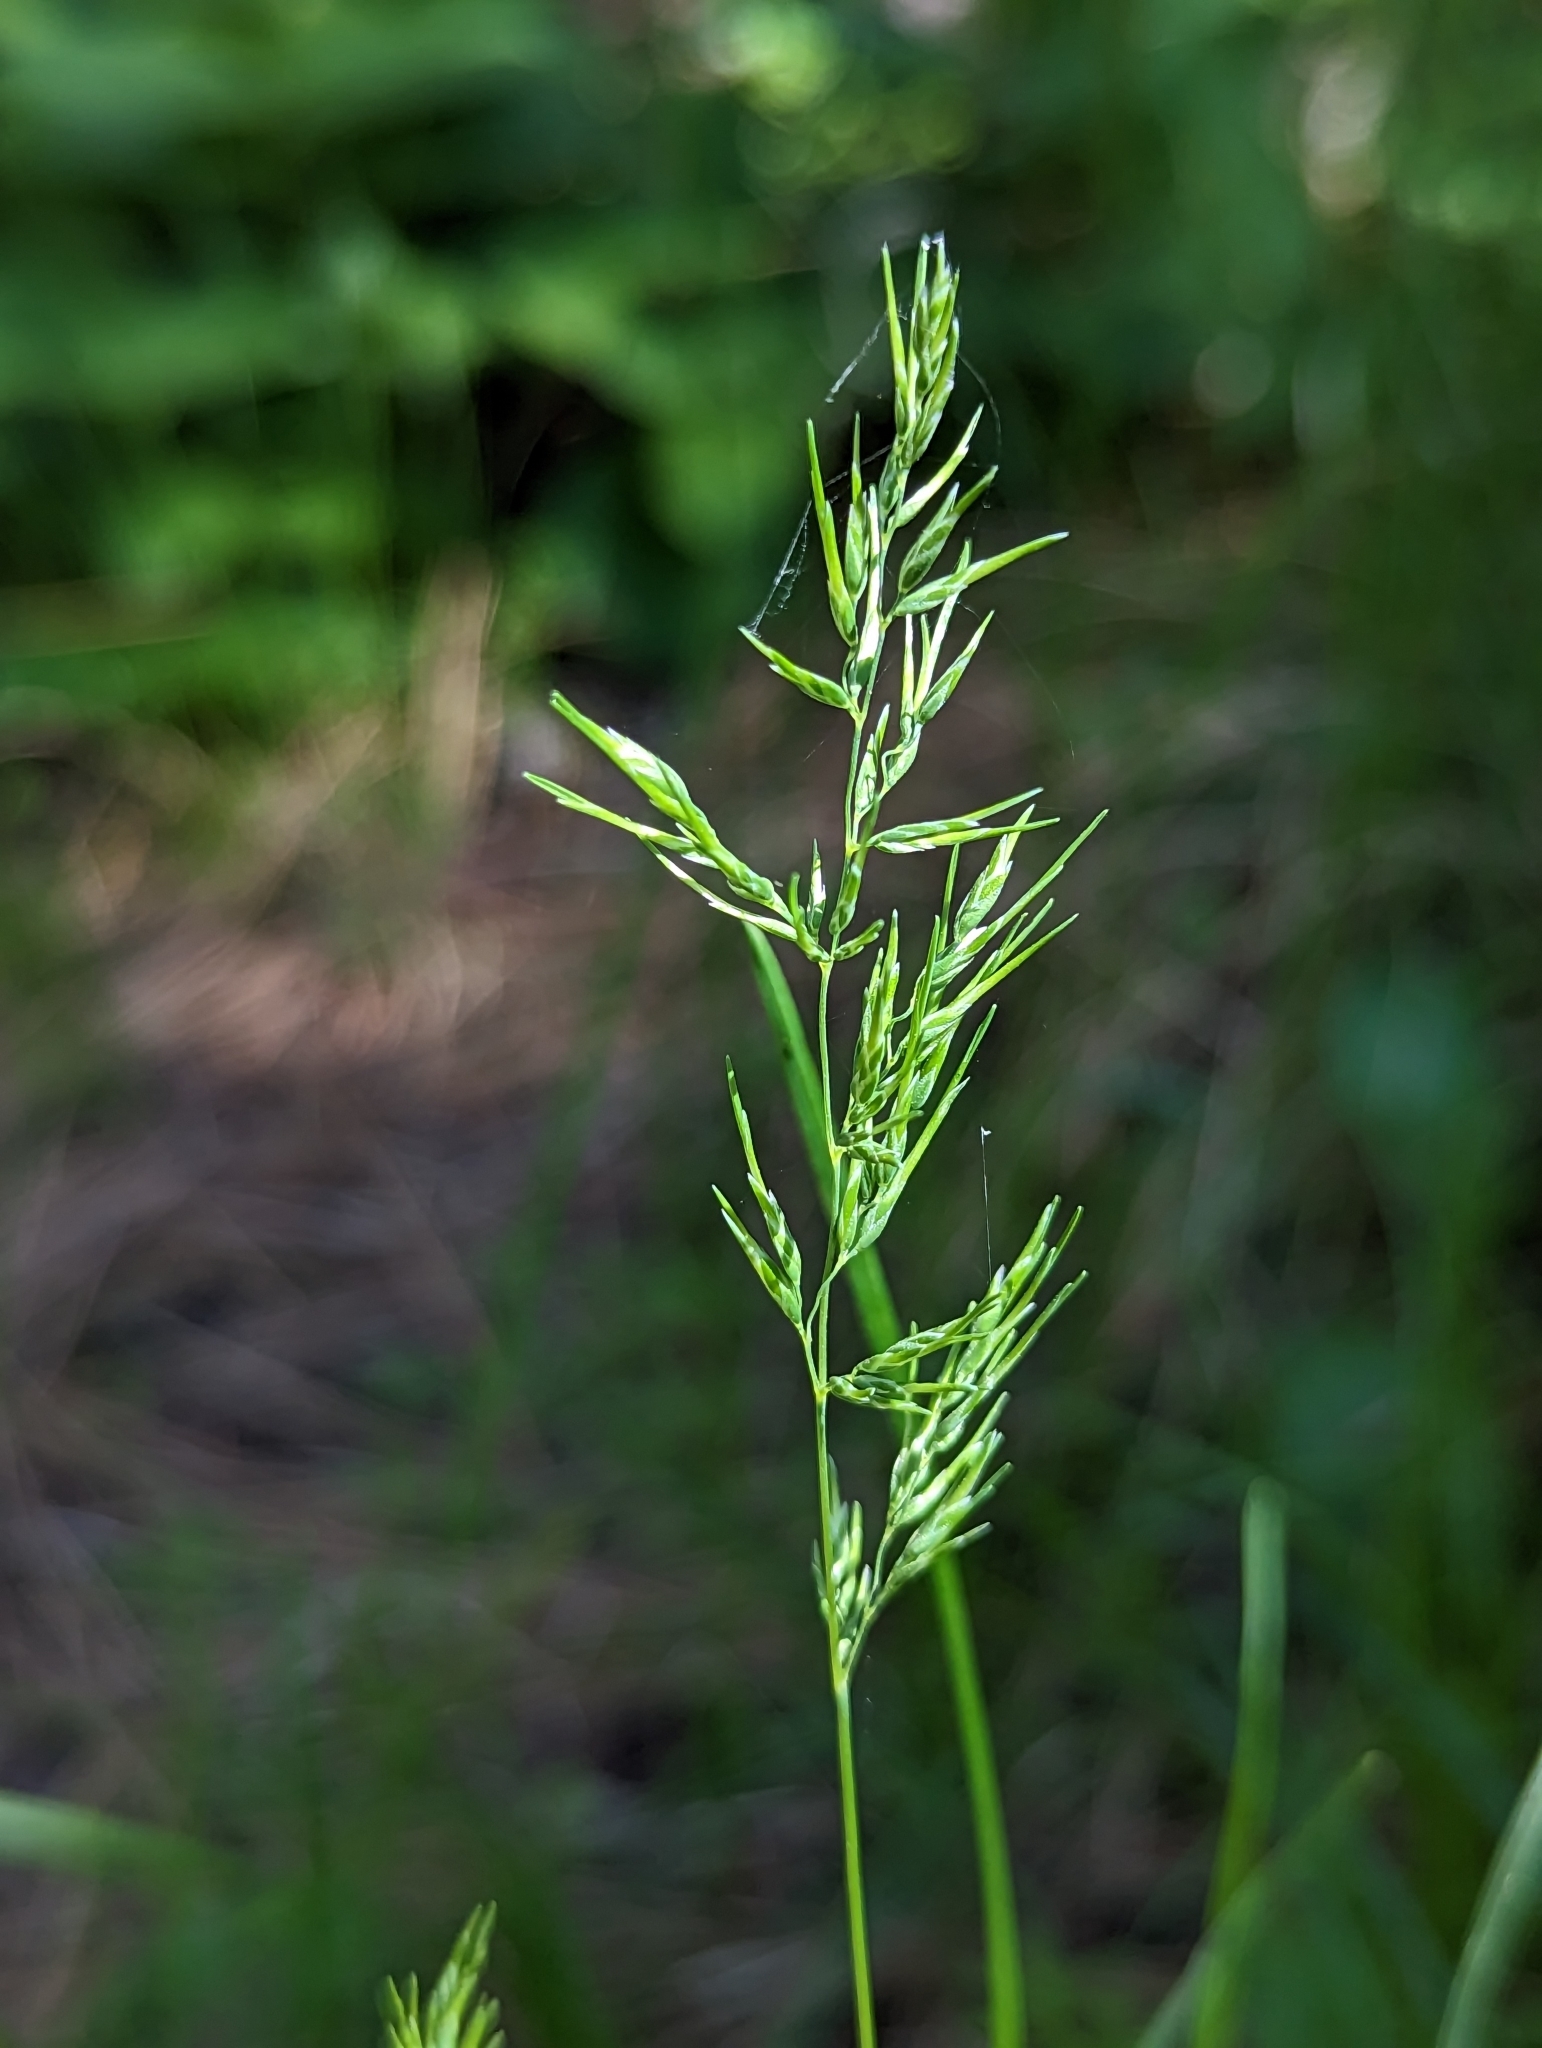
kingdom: Plantae
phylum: Tracheophyta
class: Liliopsida
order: Poales
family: Poaceae
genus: Poa
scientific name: Poa bulbosa
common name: Bulbous bluegrass
